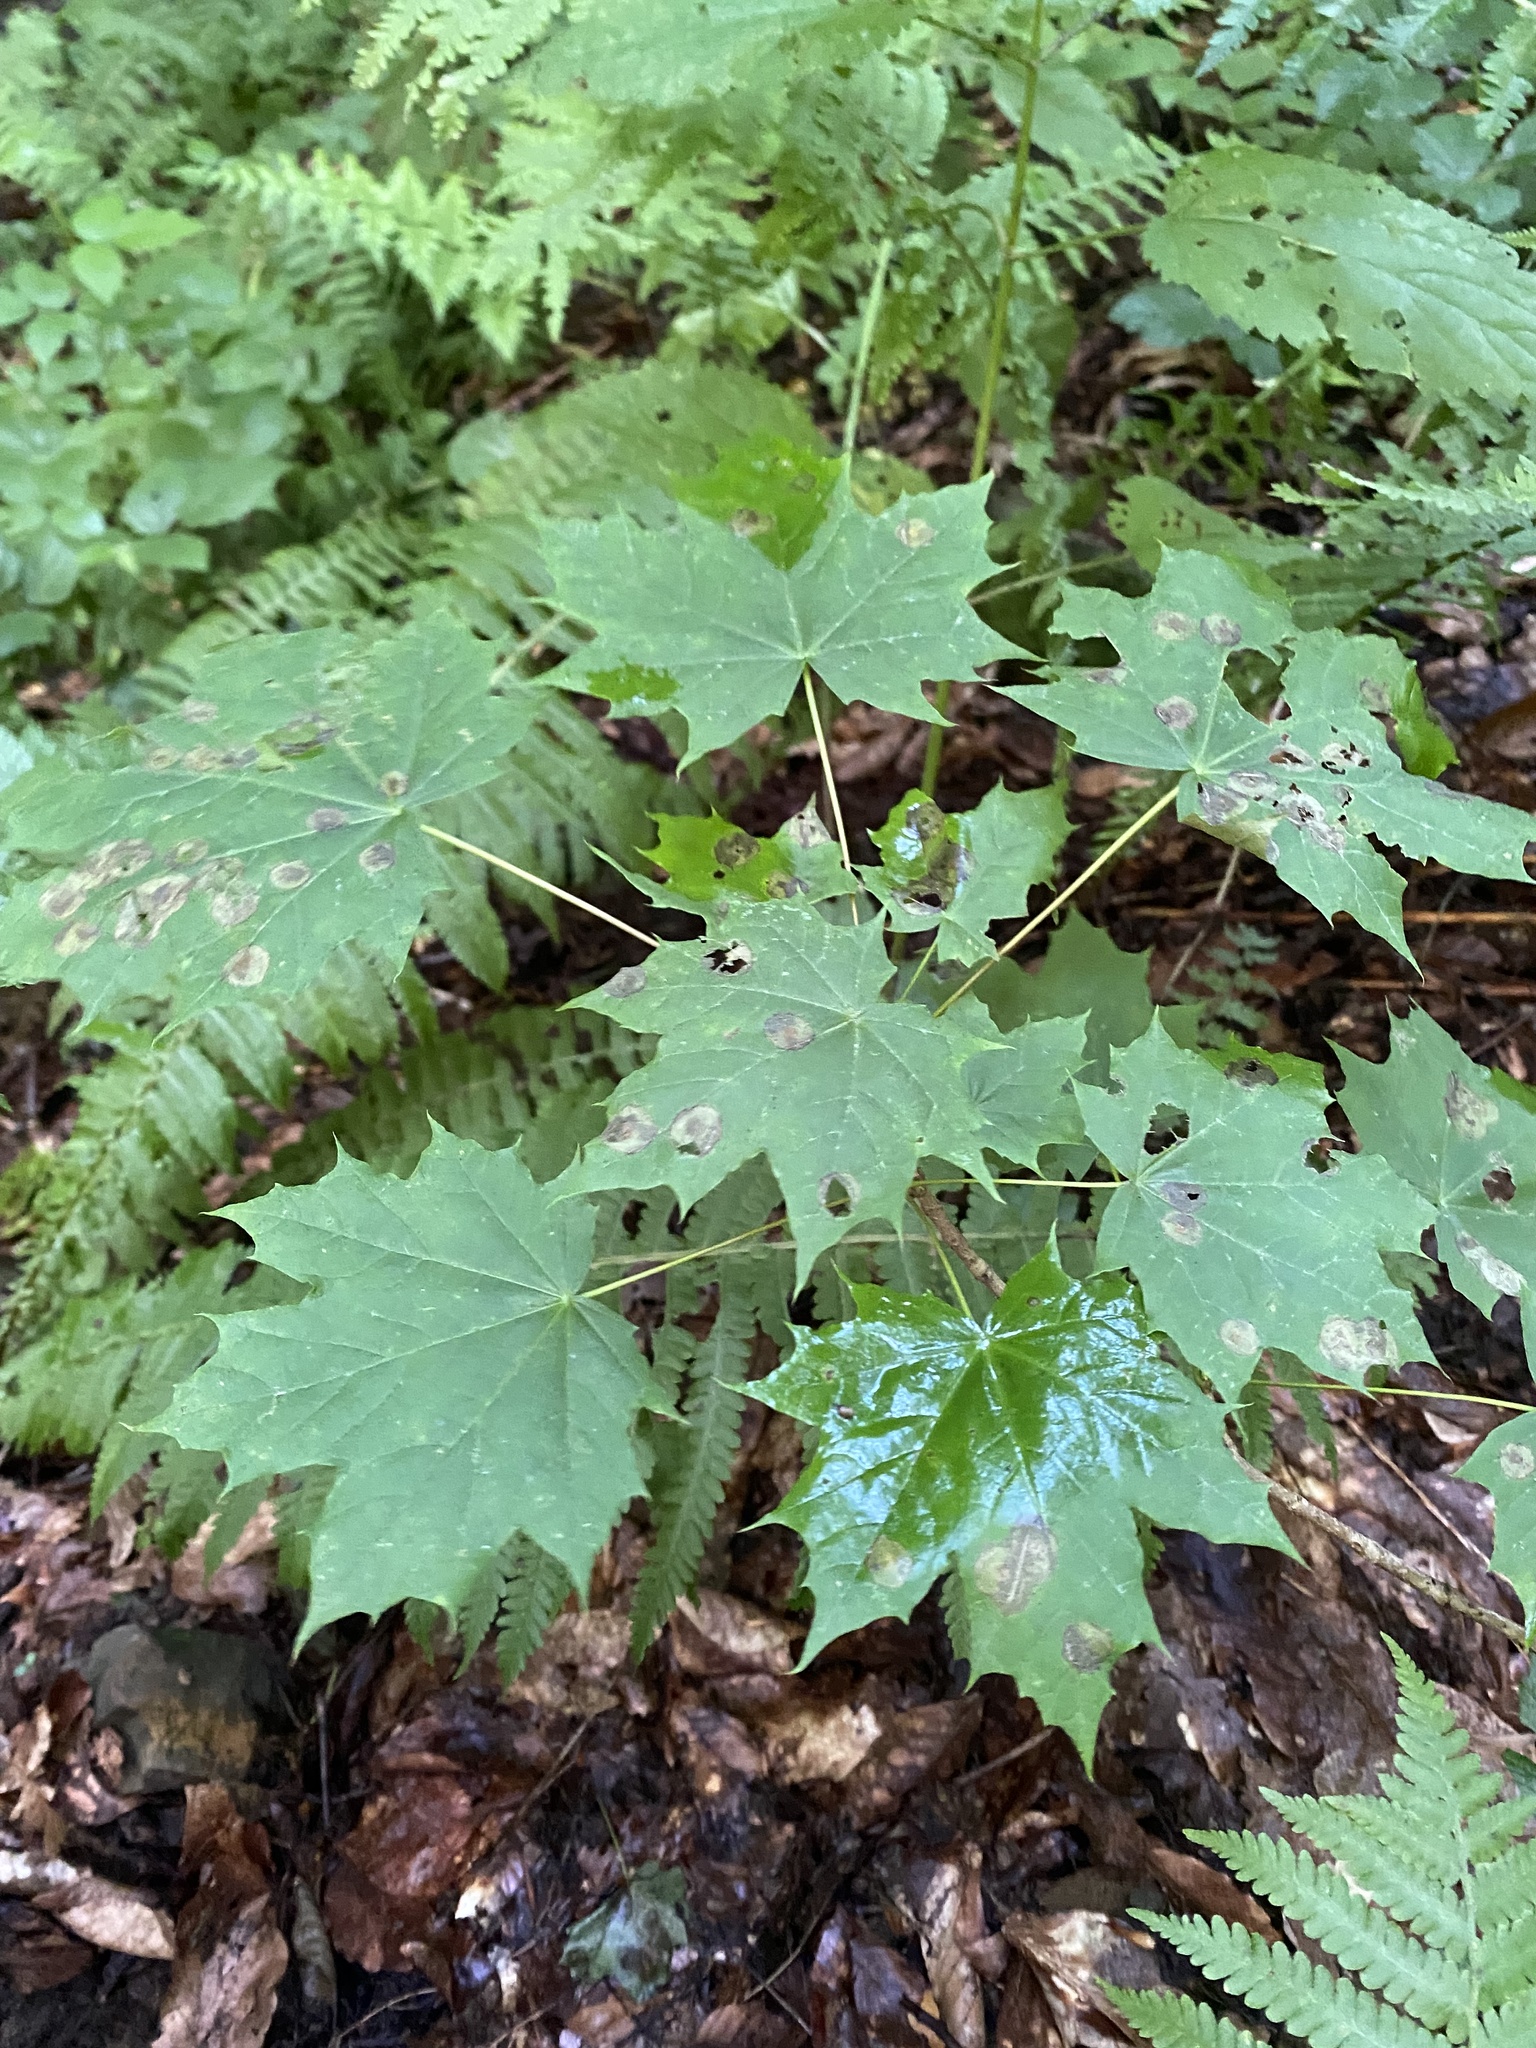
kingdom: Plantae
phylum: Tracheophyta
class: Magnoliopsida
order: Sapindales
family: Sapindaceae
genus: Acer
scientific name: Acer platanoides
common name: Norway maple
